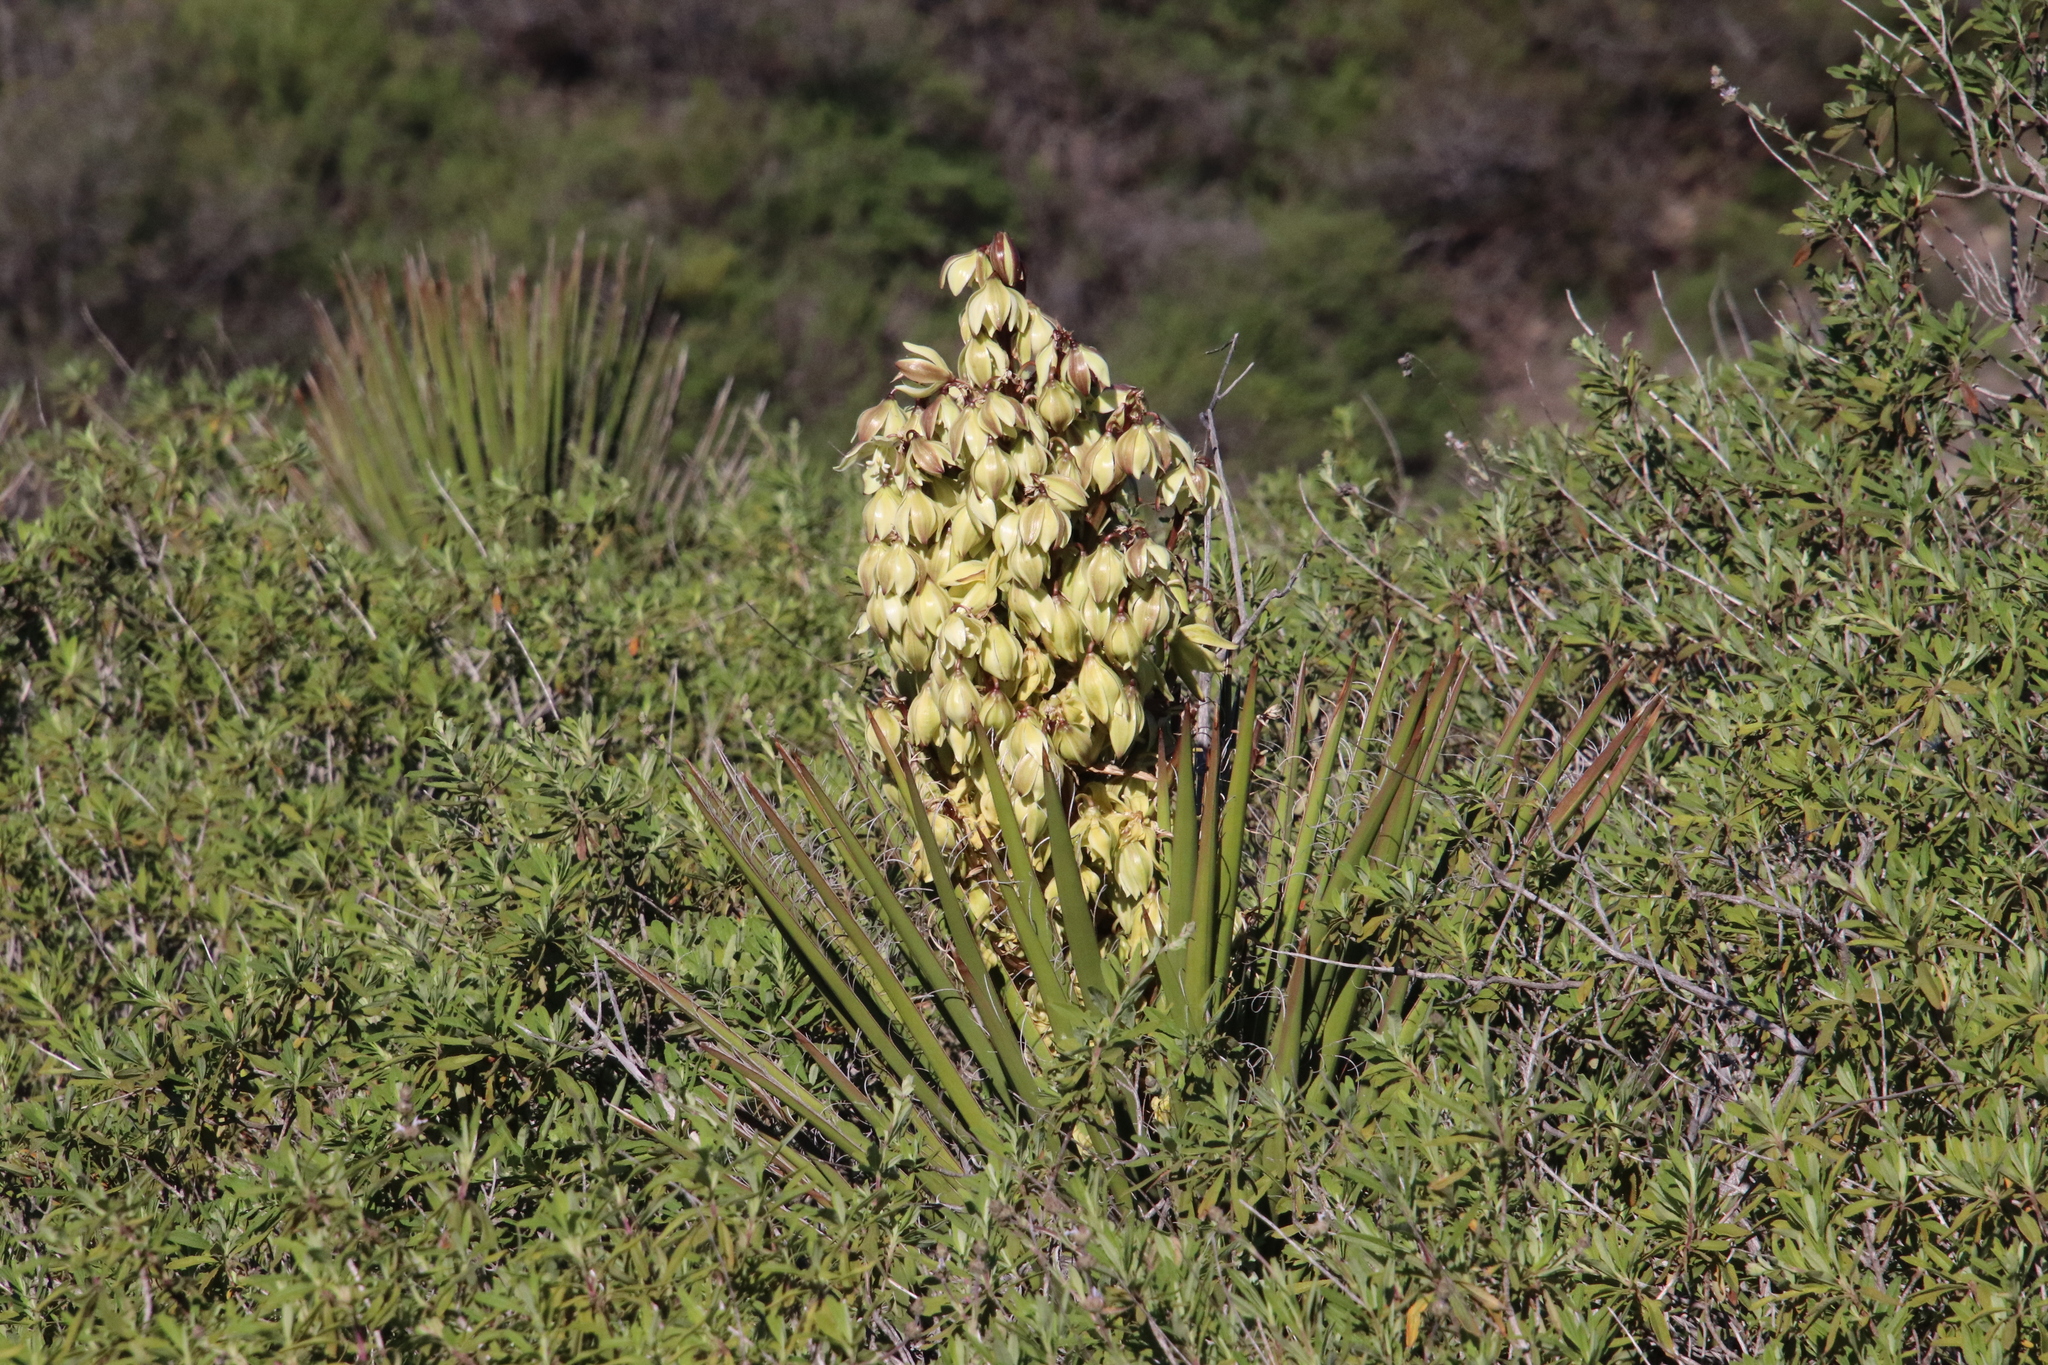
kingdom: Plantae
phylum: Tracheophyta
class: Liliopsida
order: Asparagales
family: Asparagaceae
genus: Yucca
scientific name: Yucca schidigera
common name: Mojave yucca
